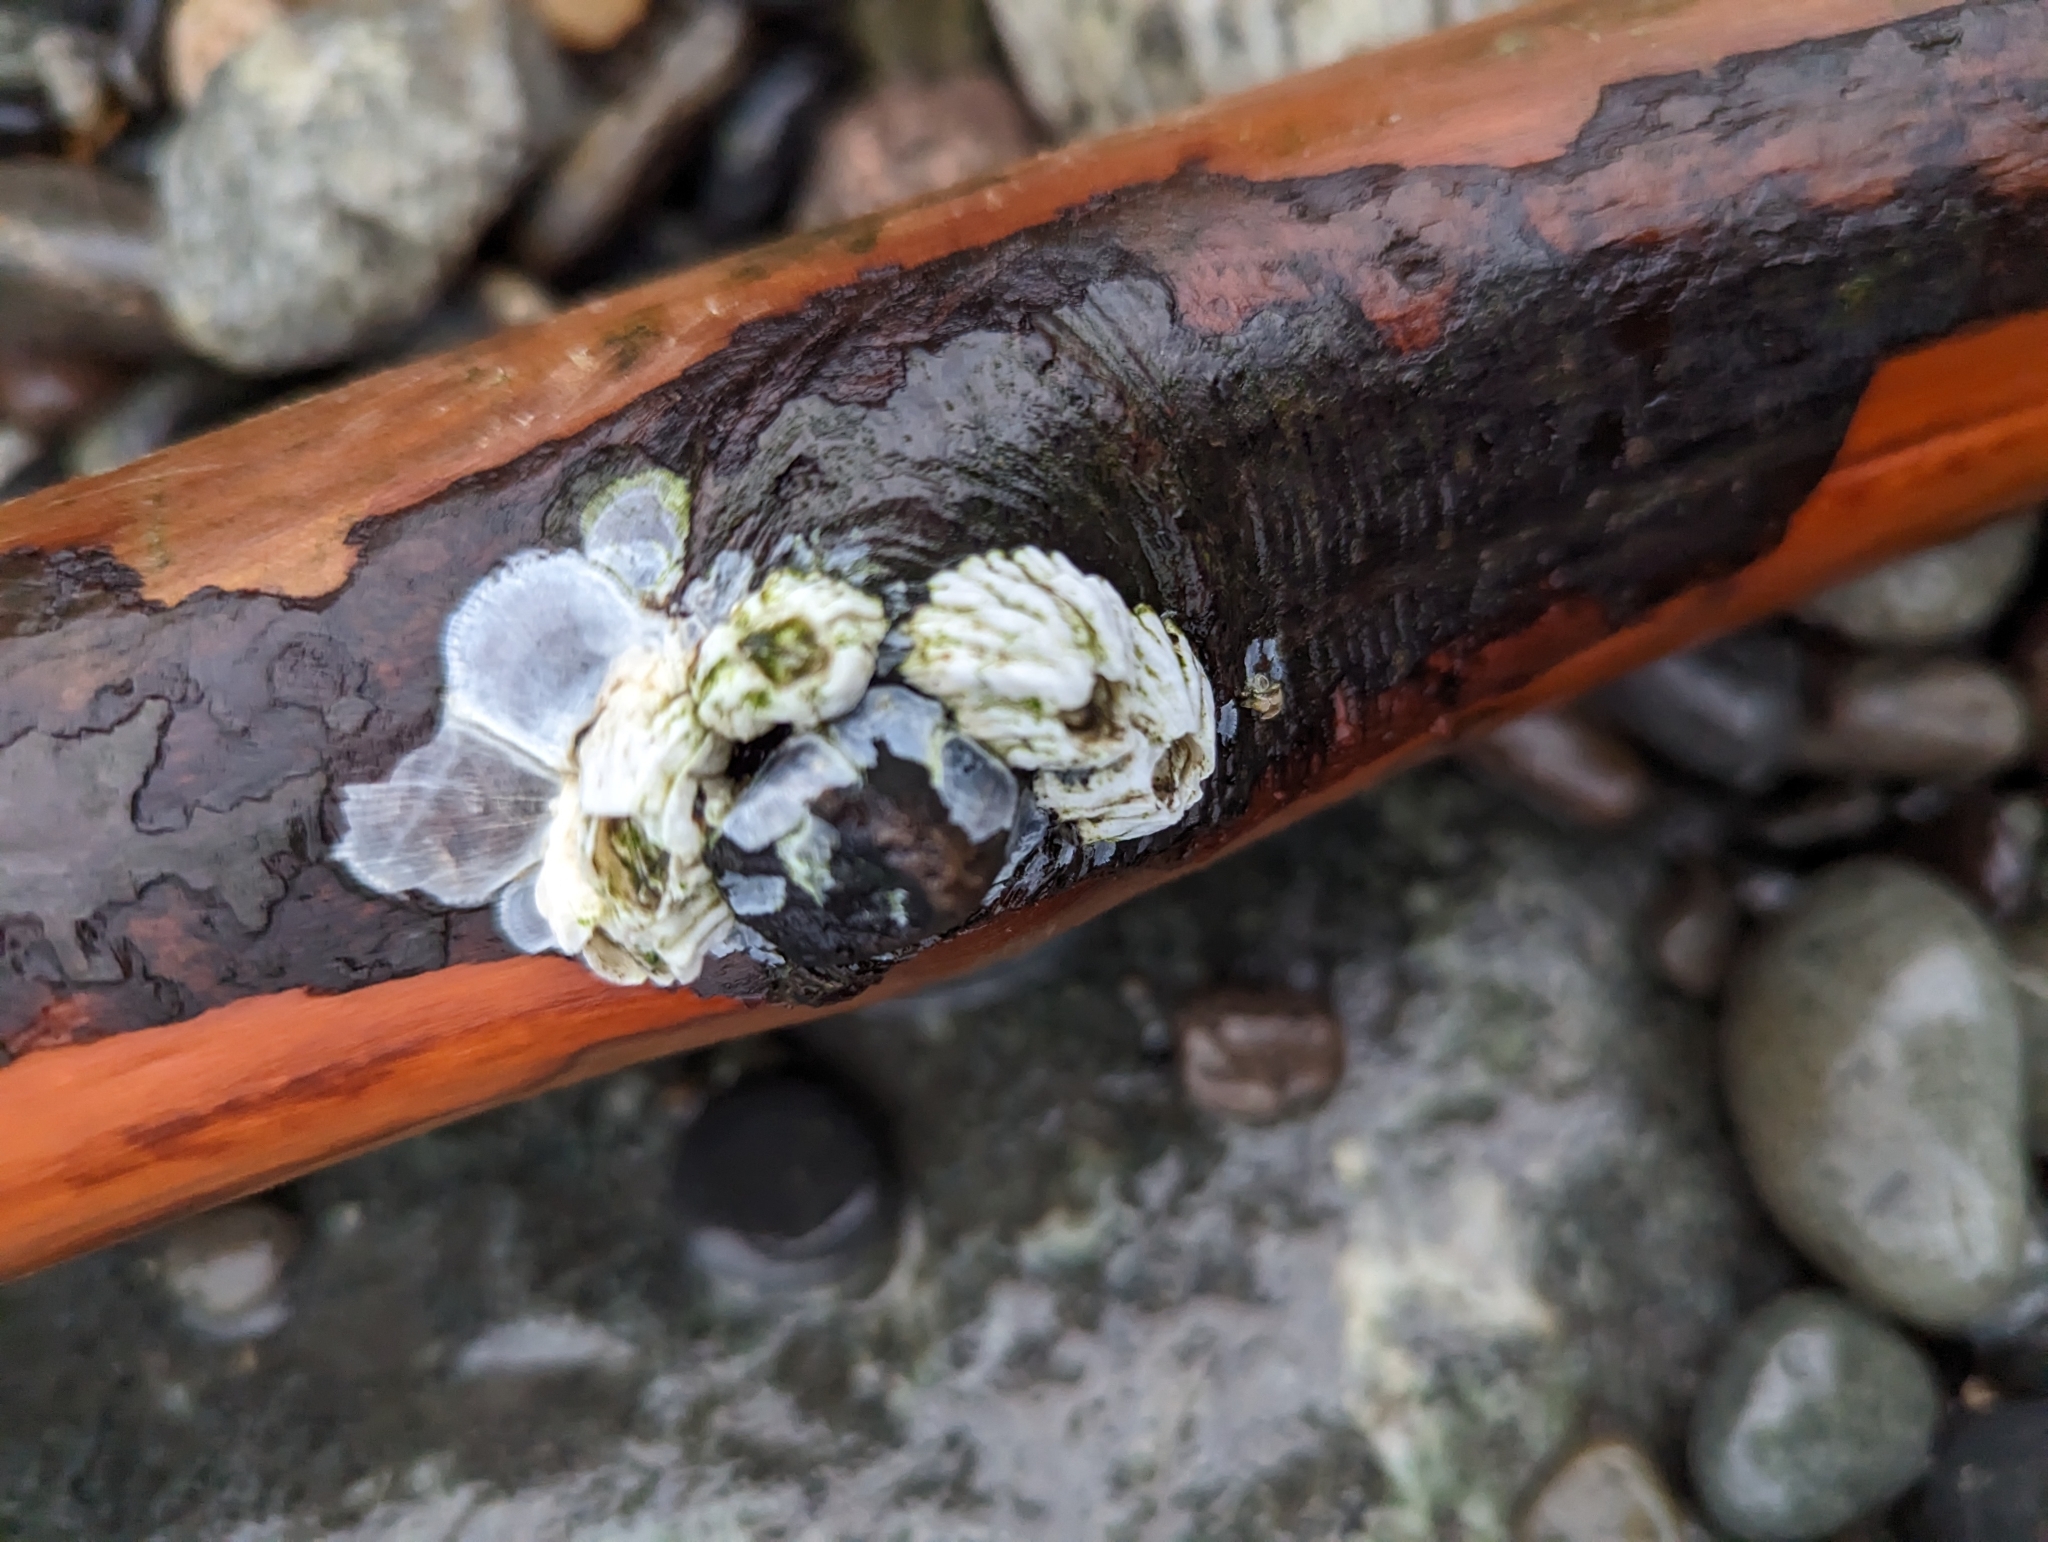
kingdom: Animalia
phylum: Arthropoda
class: Maxillopoda
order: Sessilia
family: Balanidae
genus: Balanus
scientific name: Balanus glandula
